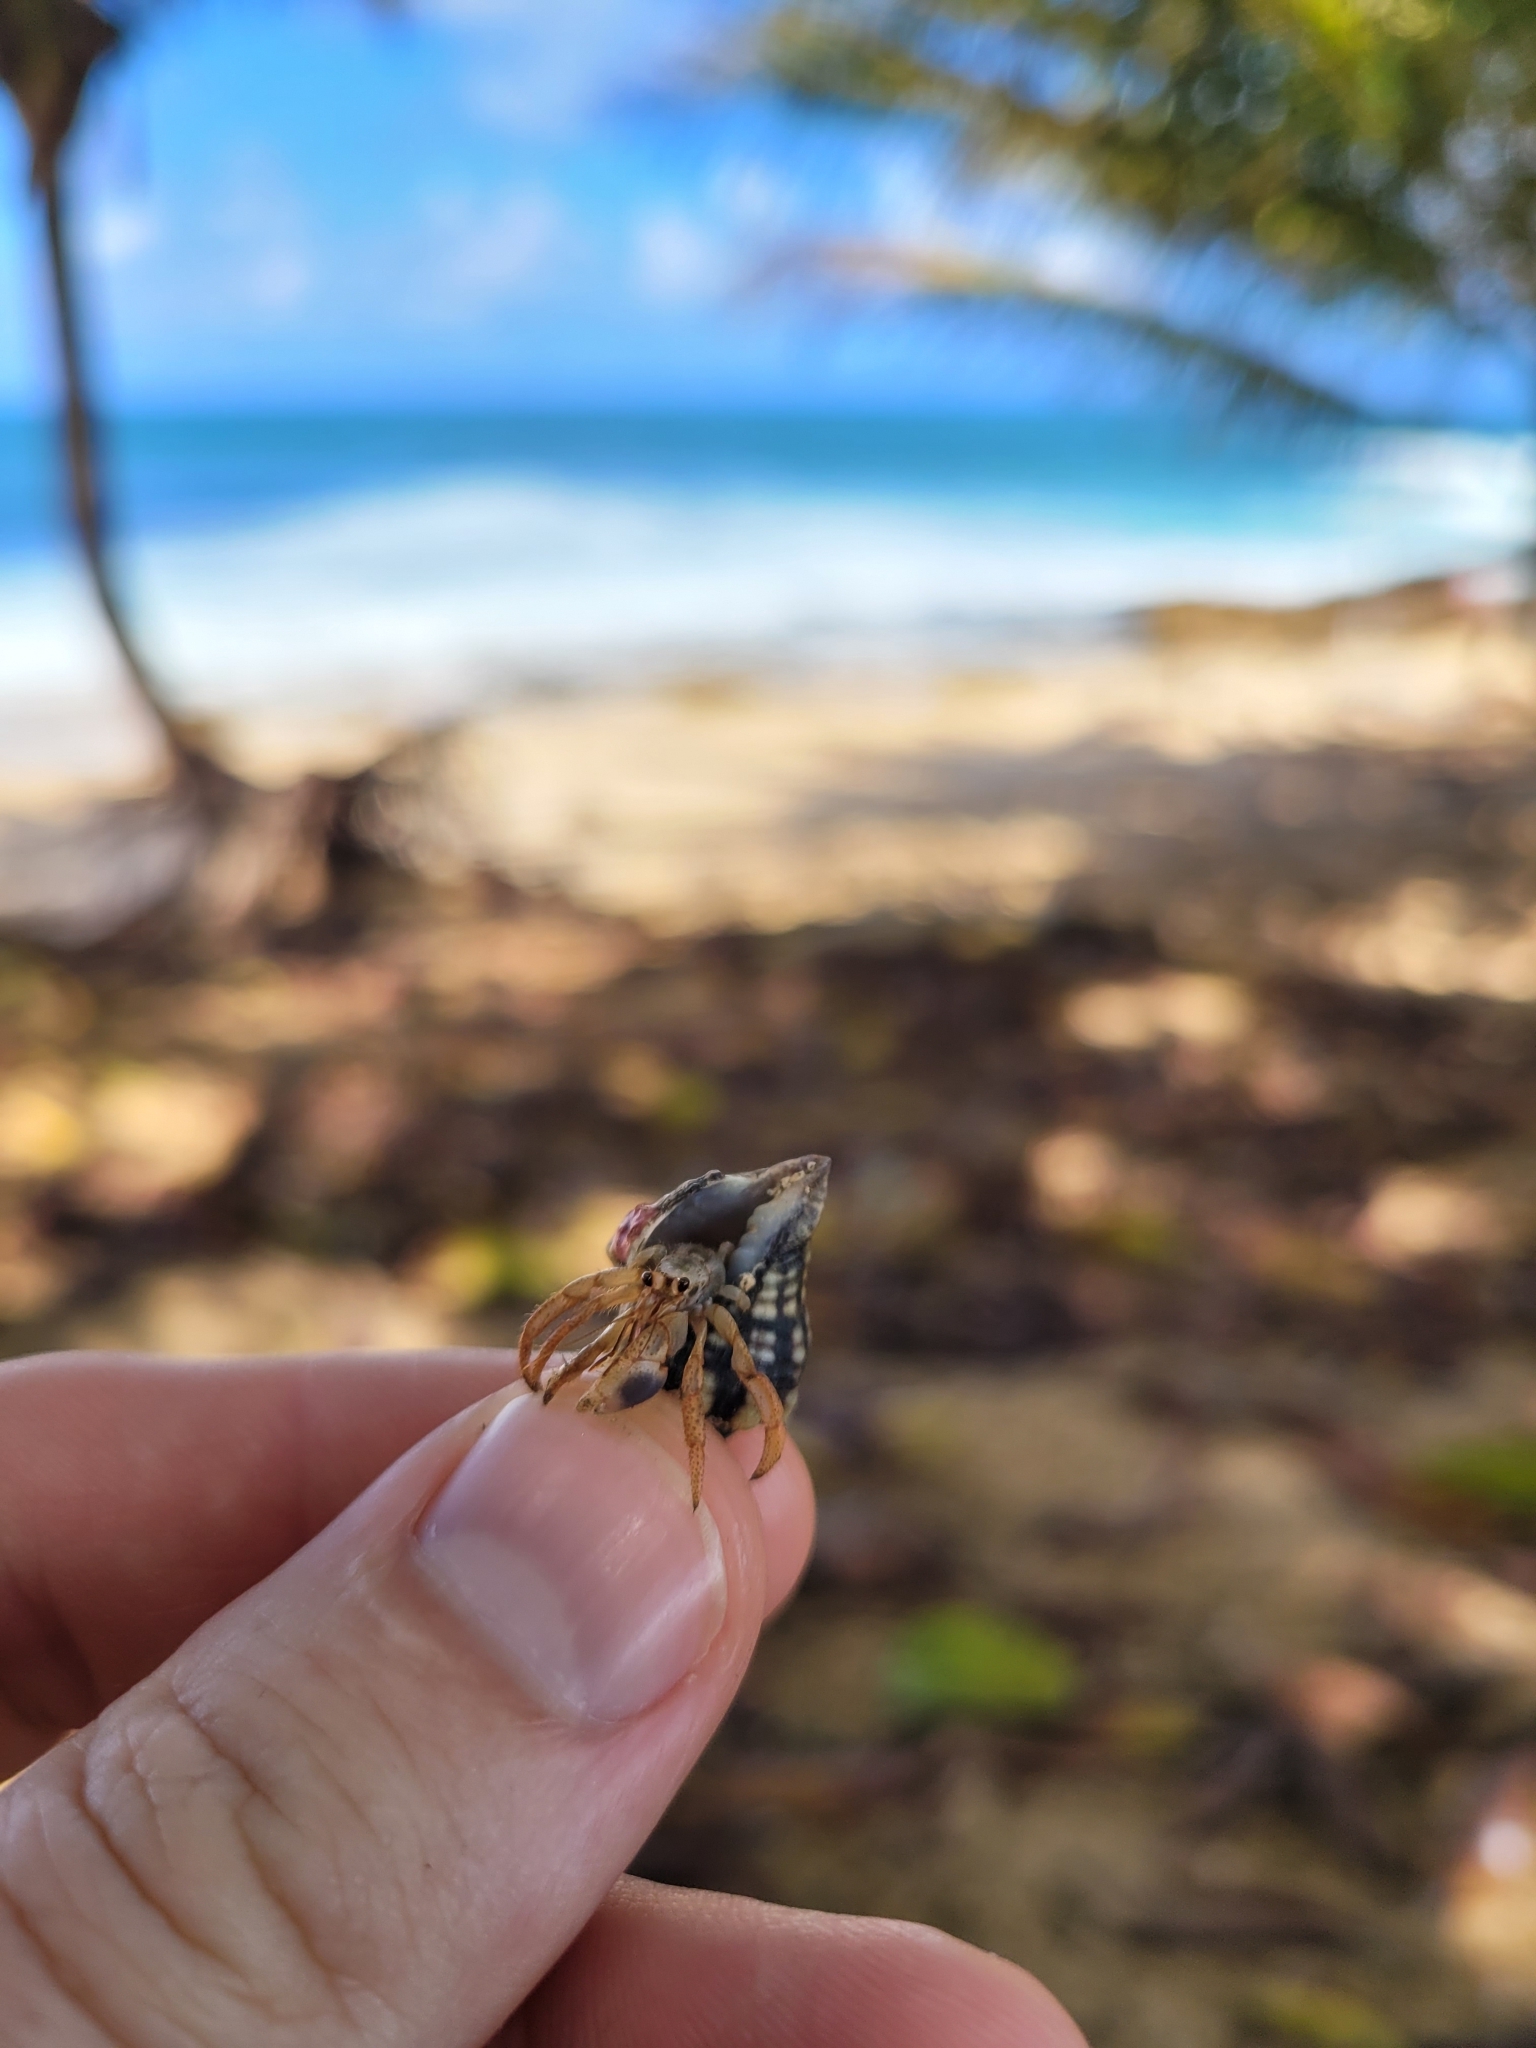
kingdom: Animalia
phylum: Arthropoda
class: Malacostraca
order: Decapoda
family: Coenobitidae
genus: Coenobita
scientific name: Coenobita clypeatus
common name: Caribbean hermit crab
